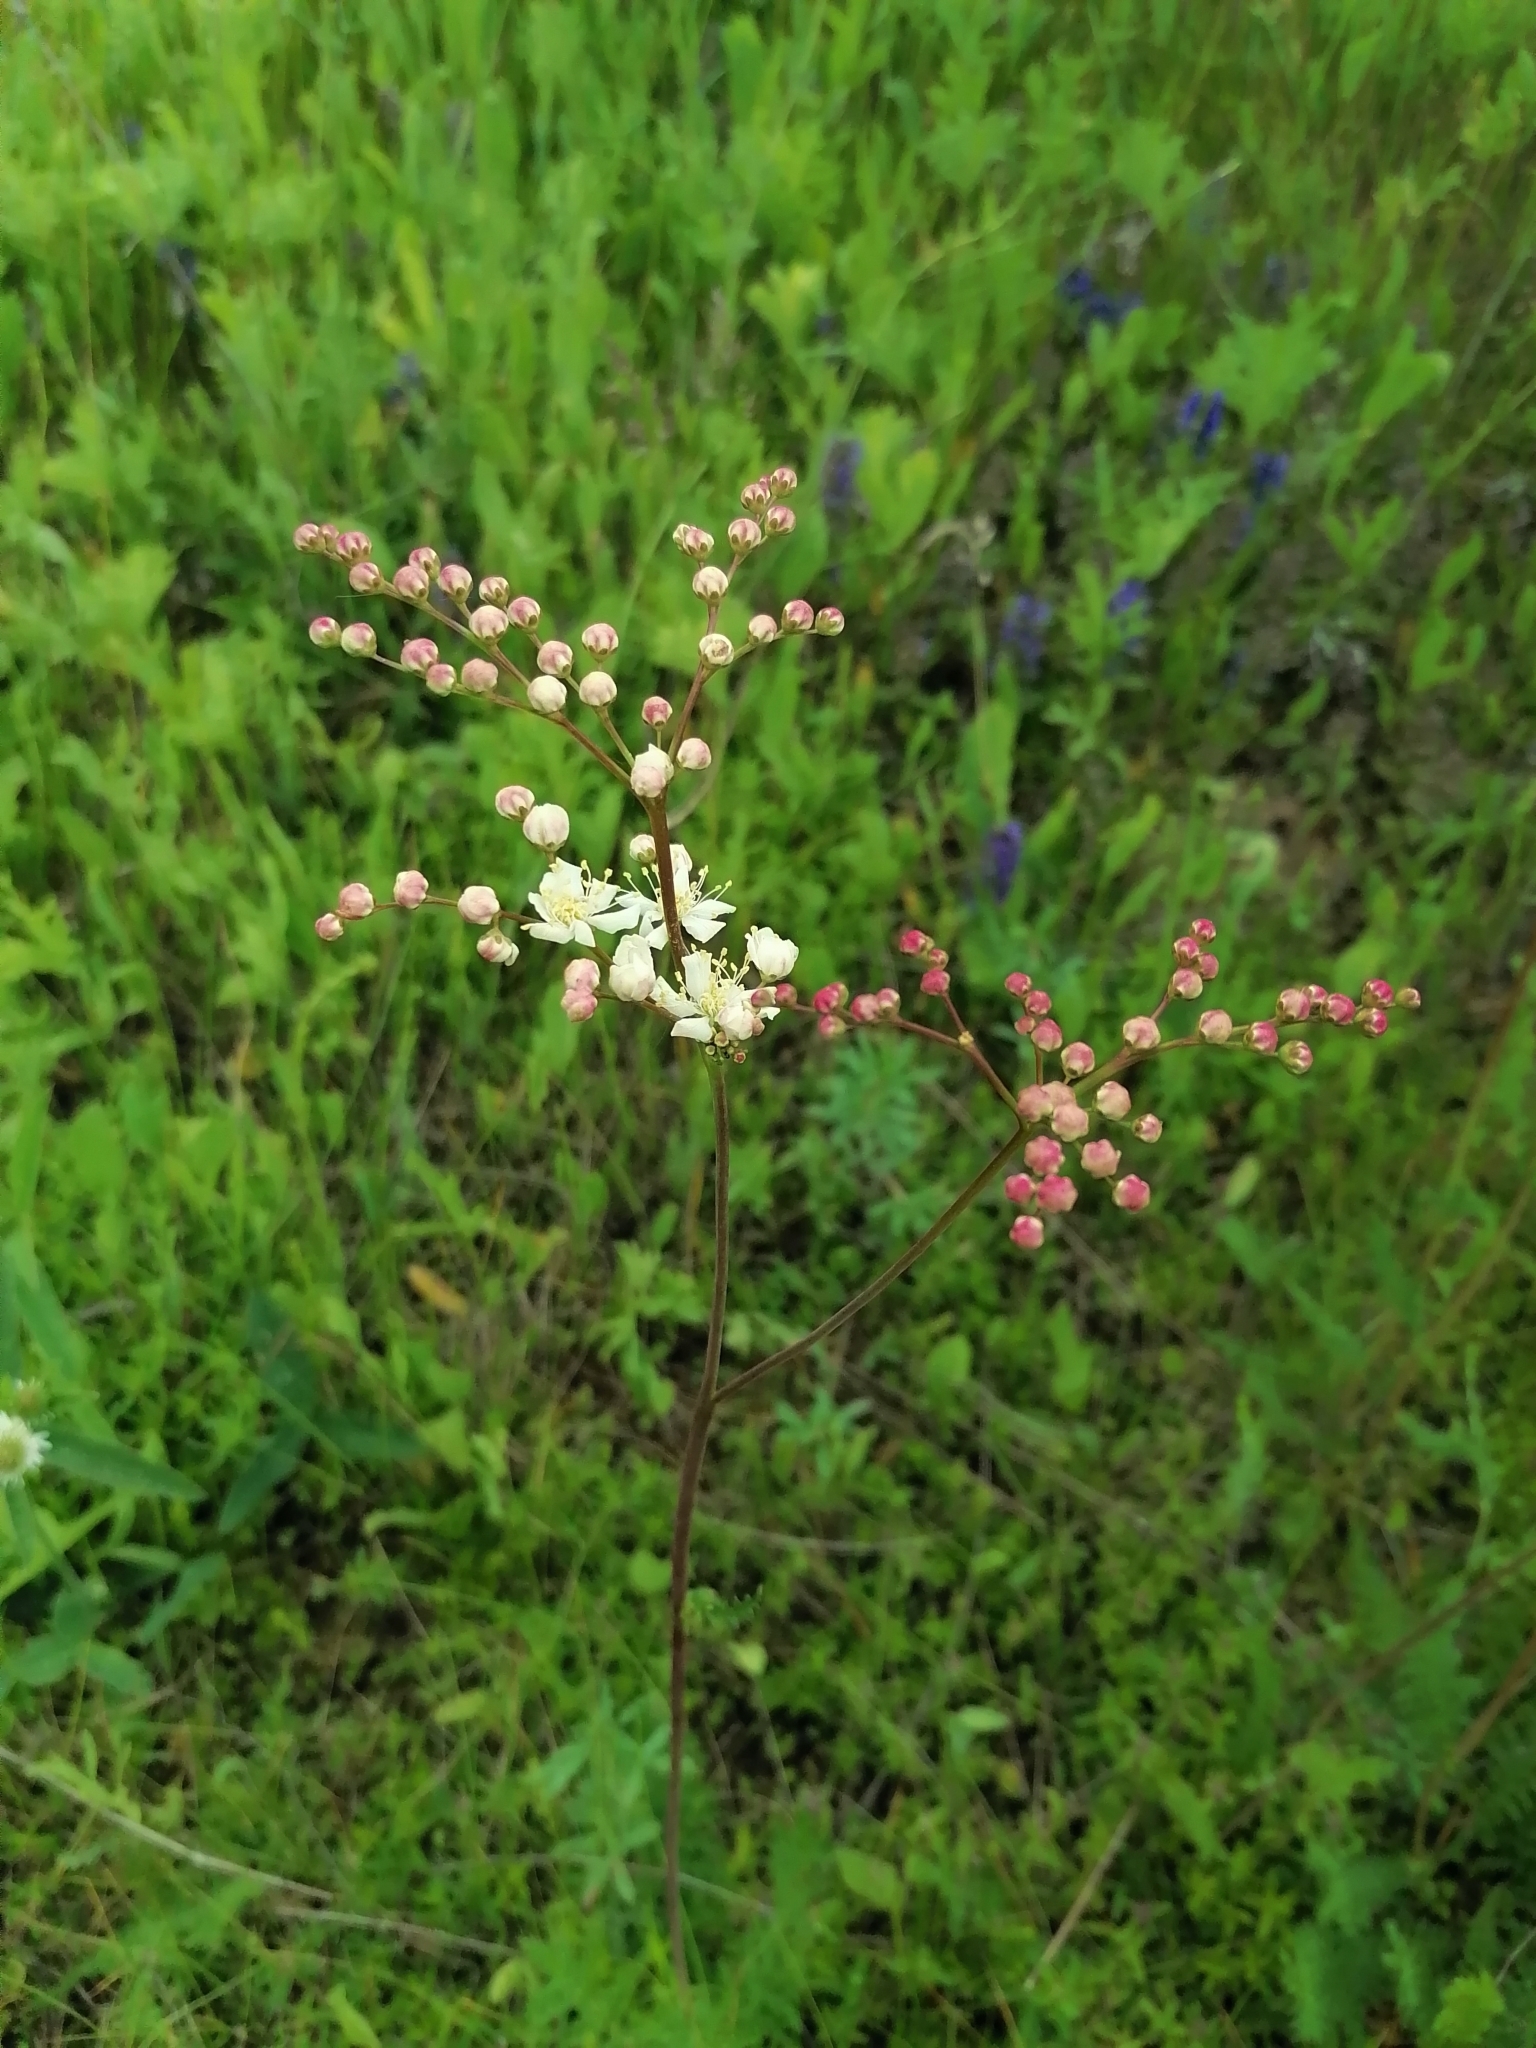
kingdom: Plantae
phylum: Tracheophyta
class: Magnoliopsida
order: Rosales
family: Rosaceae
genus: Filipendula
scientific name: Filipendula vulgaris
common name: Dropwort
